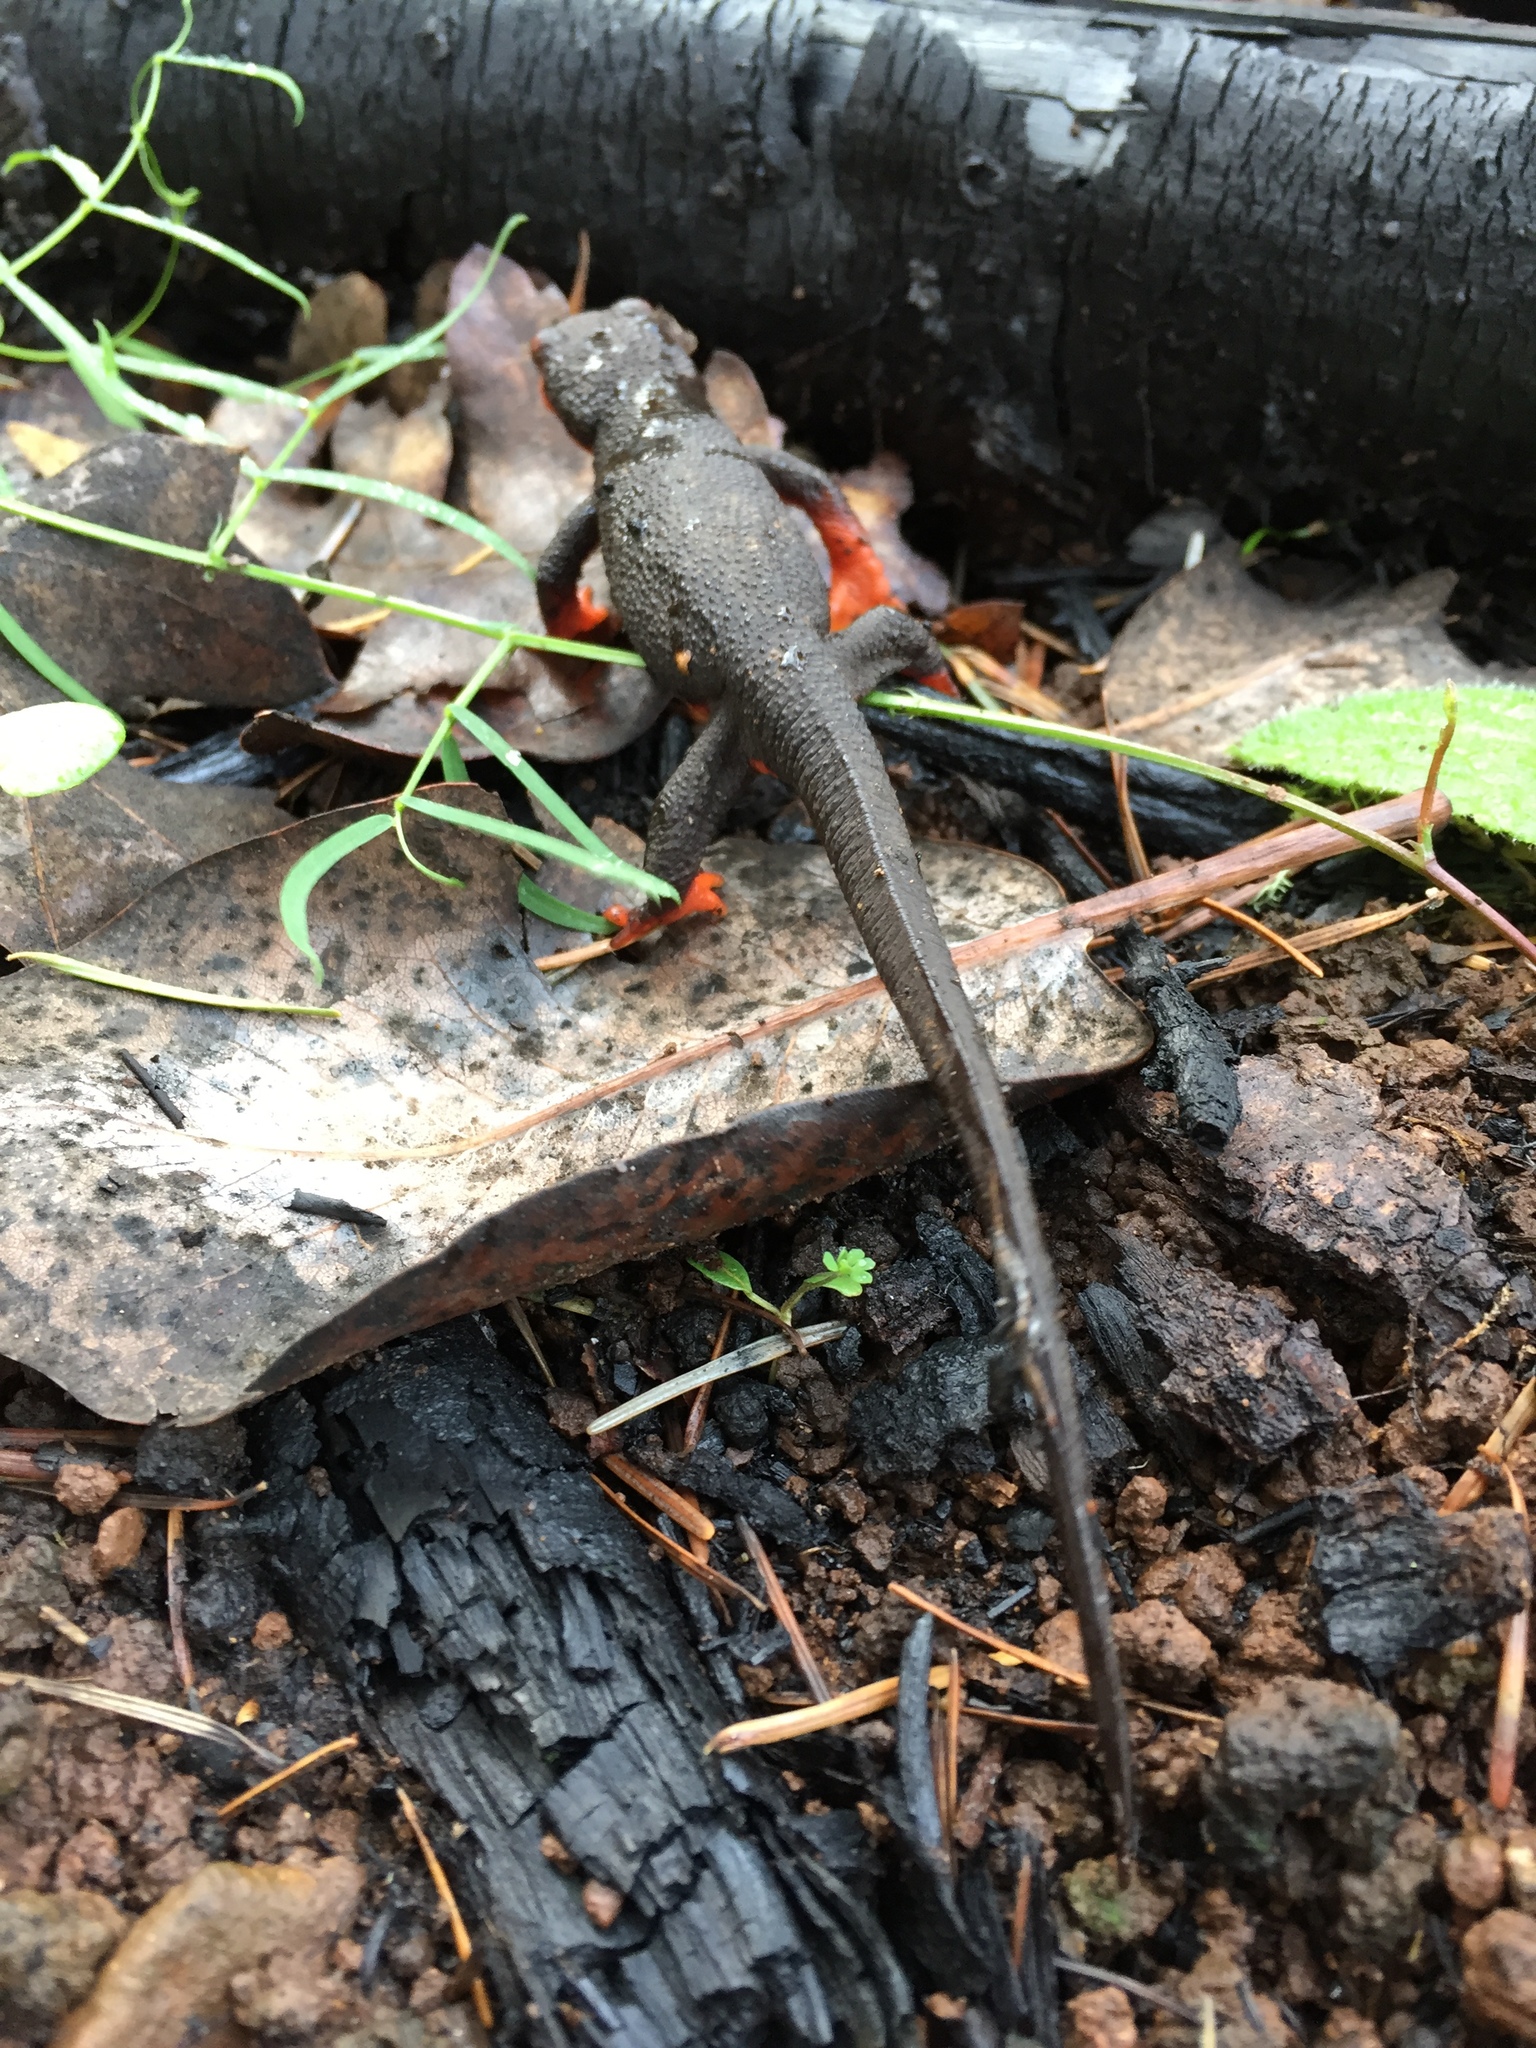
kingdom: Animalia
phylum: Chordata
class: Amphibia
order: Caudata
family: Salamandridae
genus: Taricha
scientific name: Taricha rivularis
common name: Red-bellied newt
